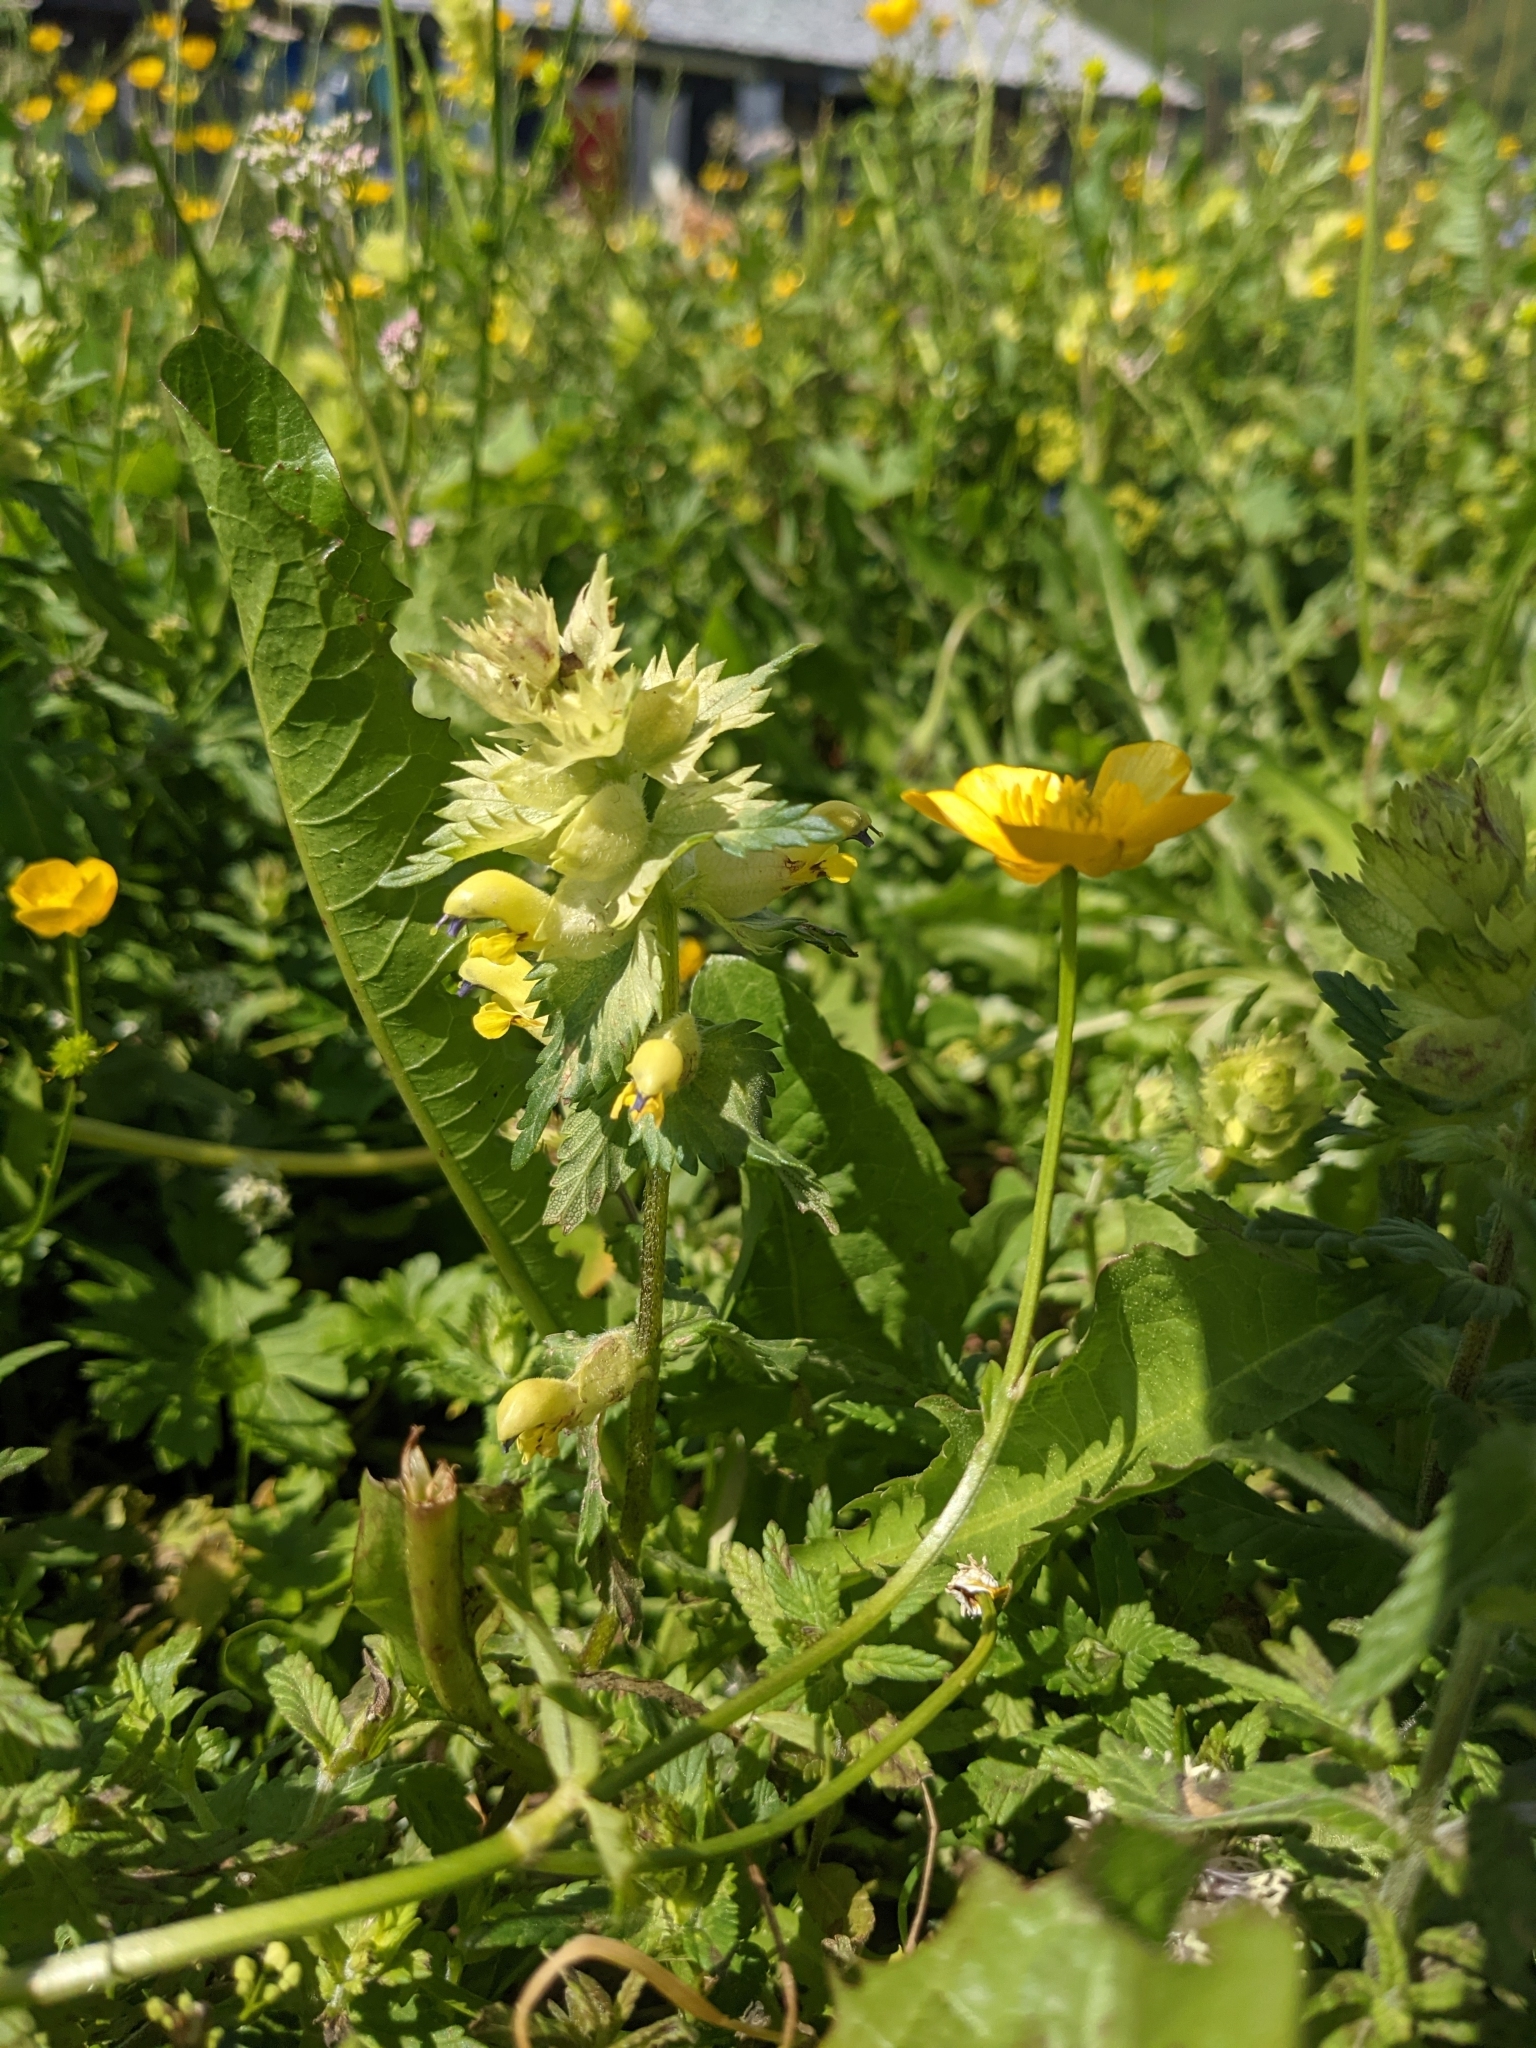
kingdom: Plantae
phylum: Tracheophyta
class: Magnoliopsida
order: Lamiales
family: Orobanchaceae
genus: Rhinanthus
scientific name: Rhinanthus alectorolophus
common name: Greater yellow-rattle
